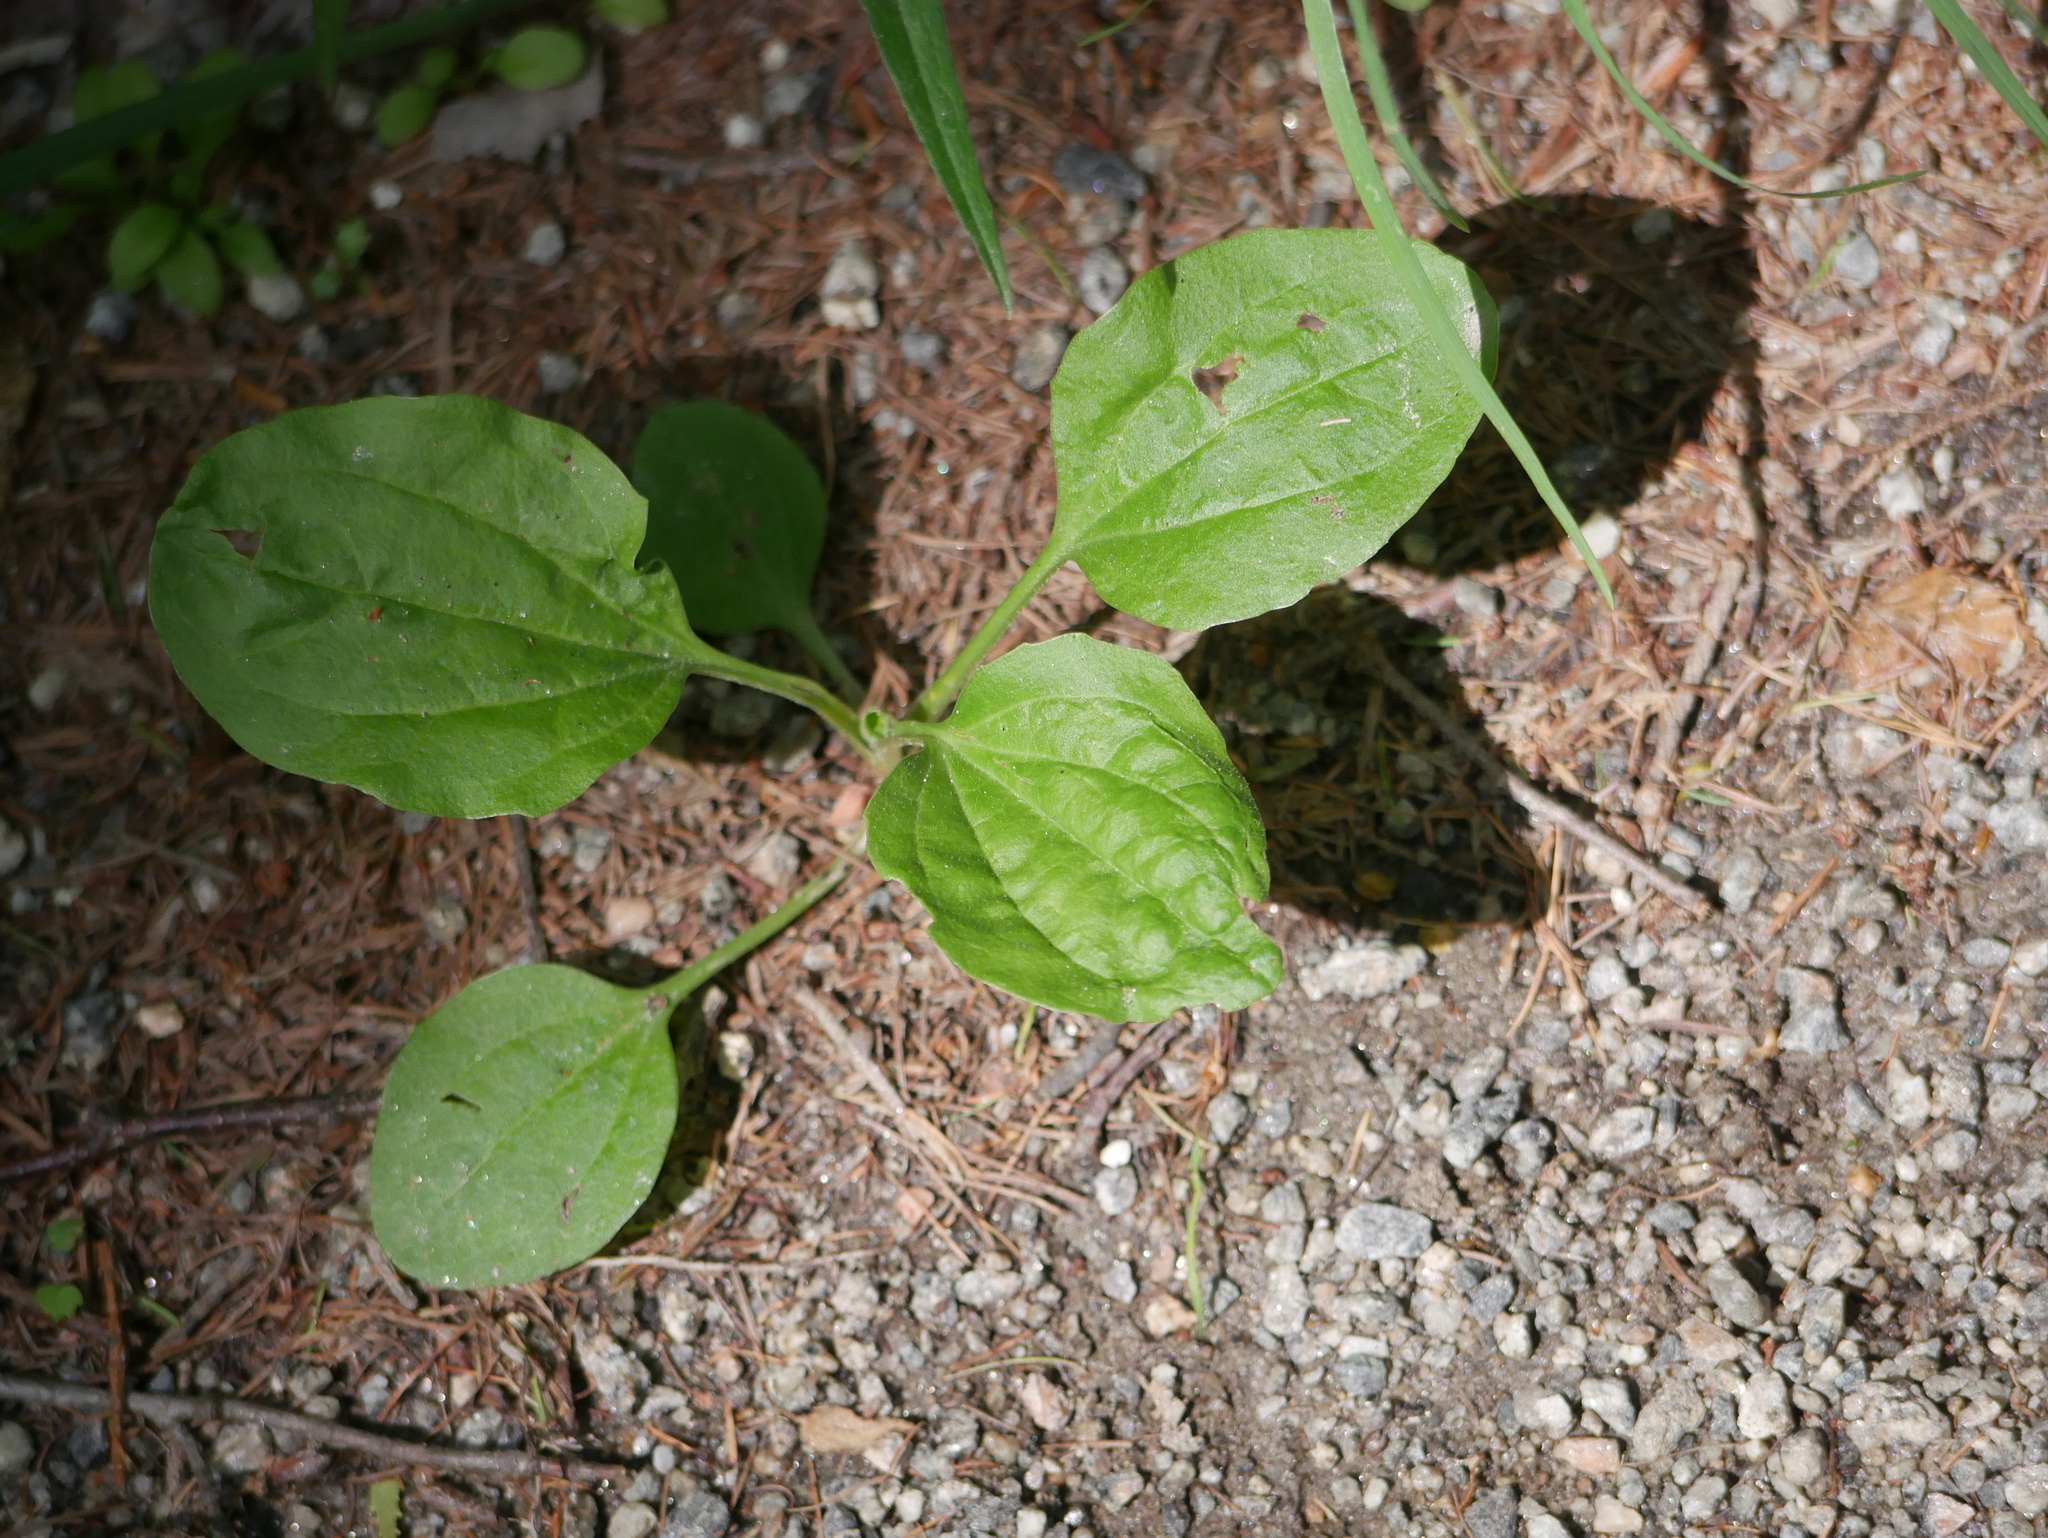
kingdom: Plantae
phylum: Tracheophyta
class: Magnoliopsida
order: Lamiales
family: Plantaginaceae
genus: Plantago
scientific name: Plantago major
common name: Common plantain
